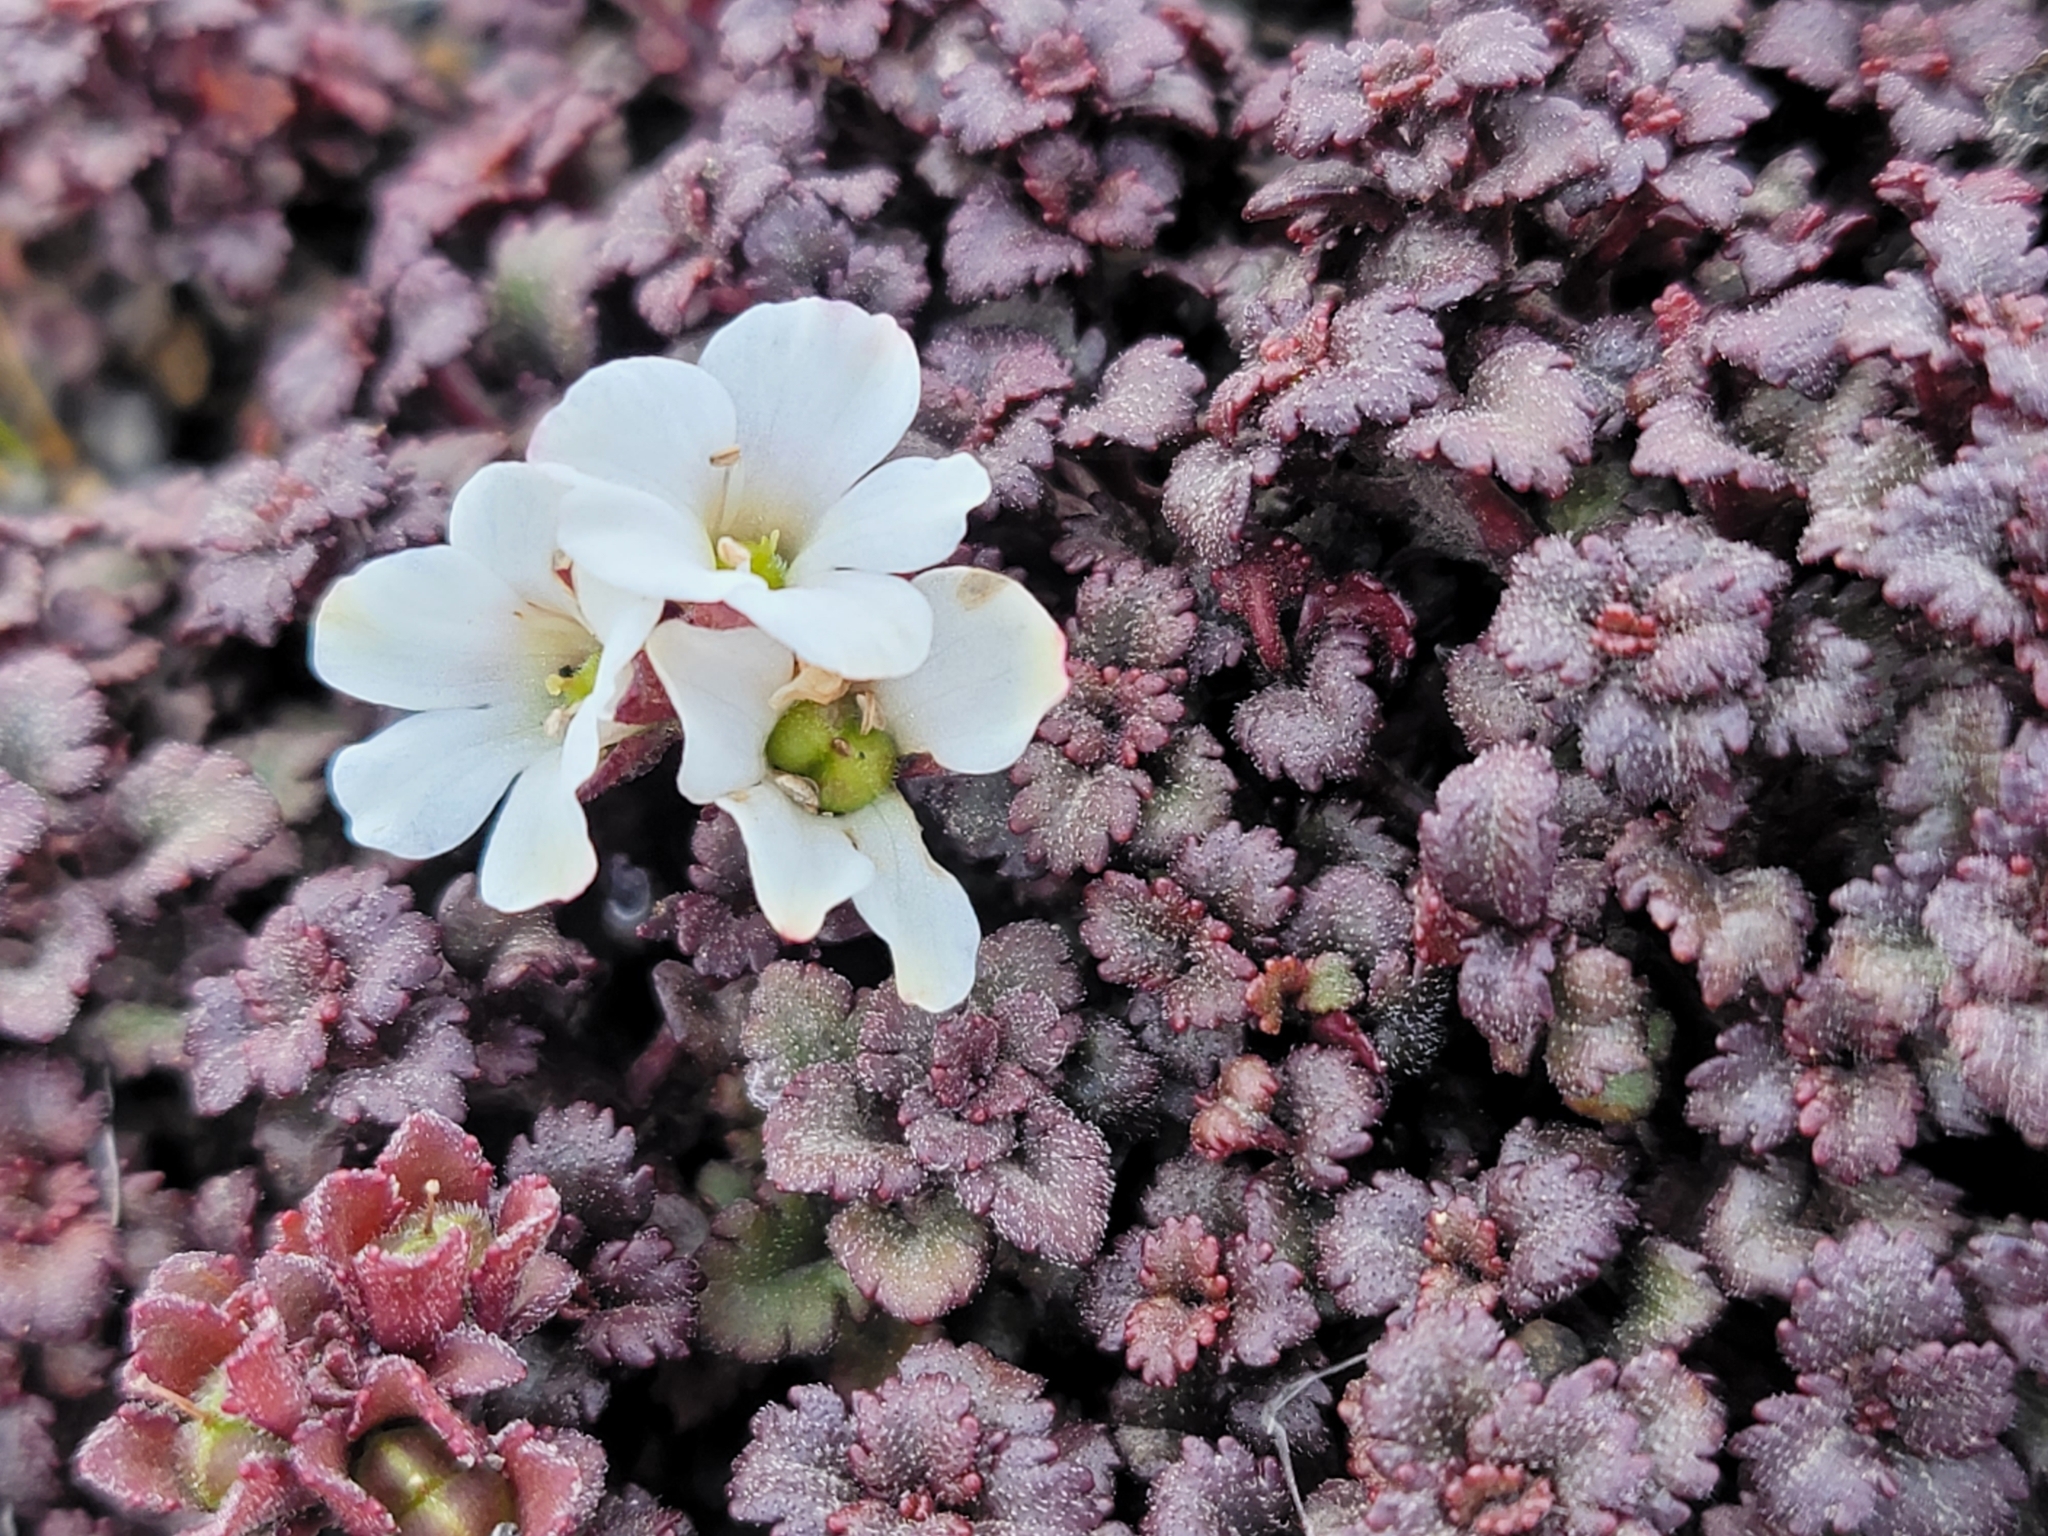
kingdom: Plantae
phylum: Tracheophyta
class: Magnoliopsida
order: Lamiales
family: Plantaginaceae
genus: Veronica
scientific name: Veronica spathulata
